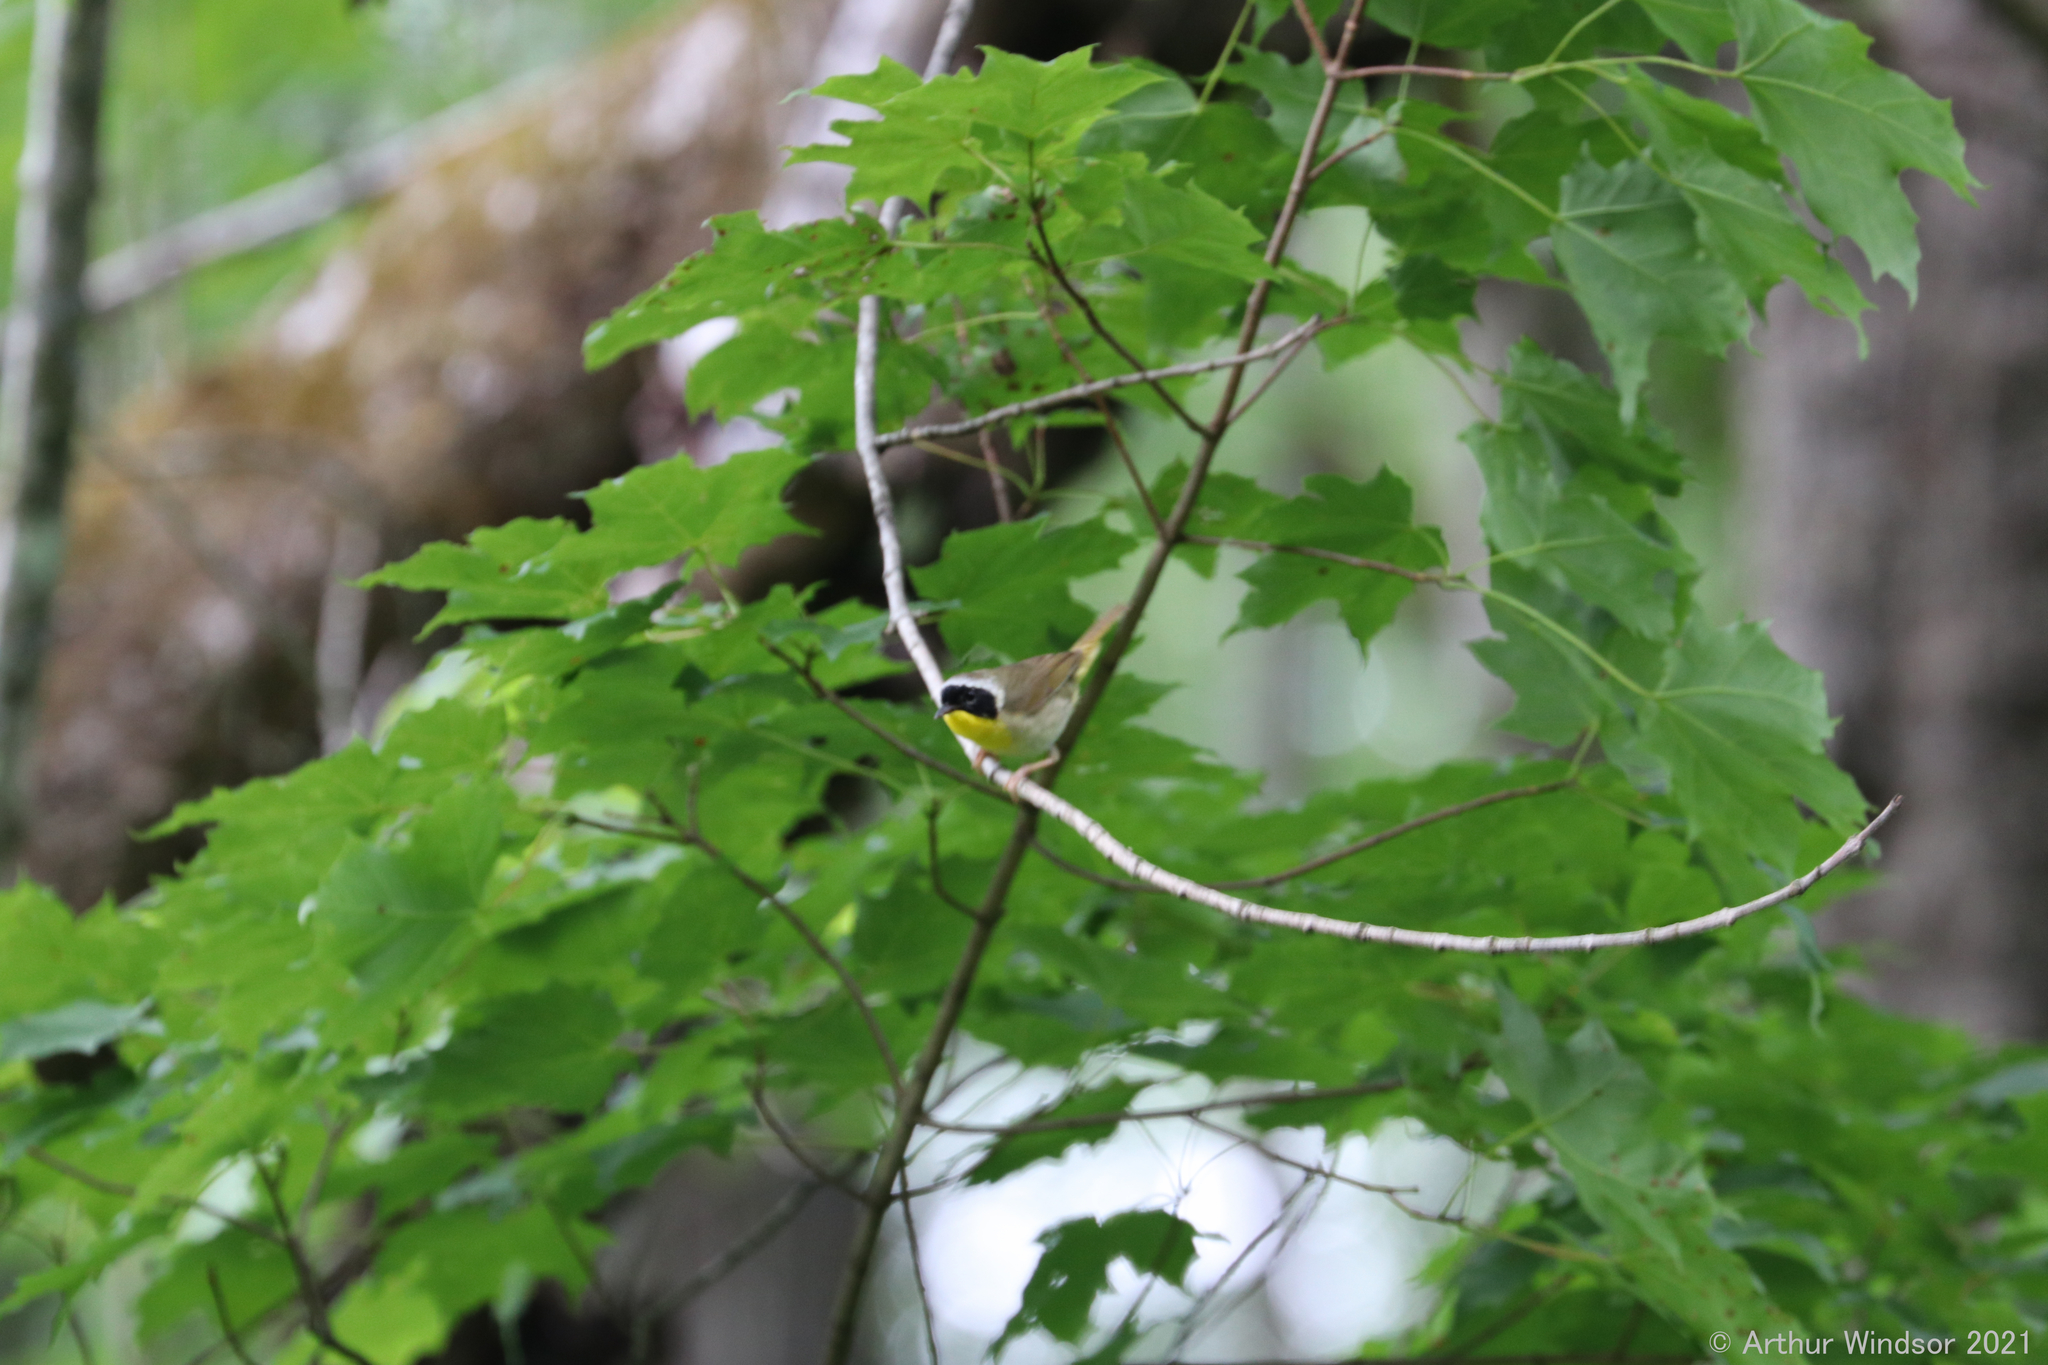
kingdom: Animalia
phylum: Chordata
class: Aves
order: Passeriformes
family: Parulidae
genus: Geothlypis
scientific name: Geothlypis trichas
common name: Common yellowthroat
